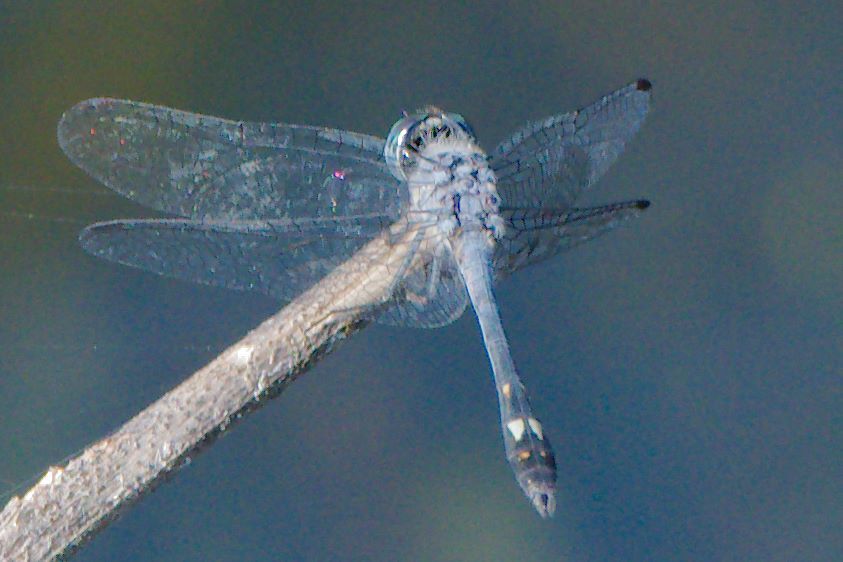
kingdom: Animalia
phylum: Arthropoda
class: Insecta
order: Odonata
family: Libellulidae
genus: Micrathyria
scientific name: Micrathyria aequalis
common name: Spot-tailed dasher
